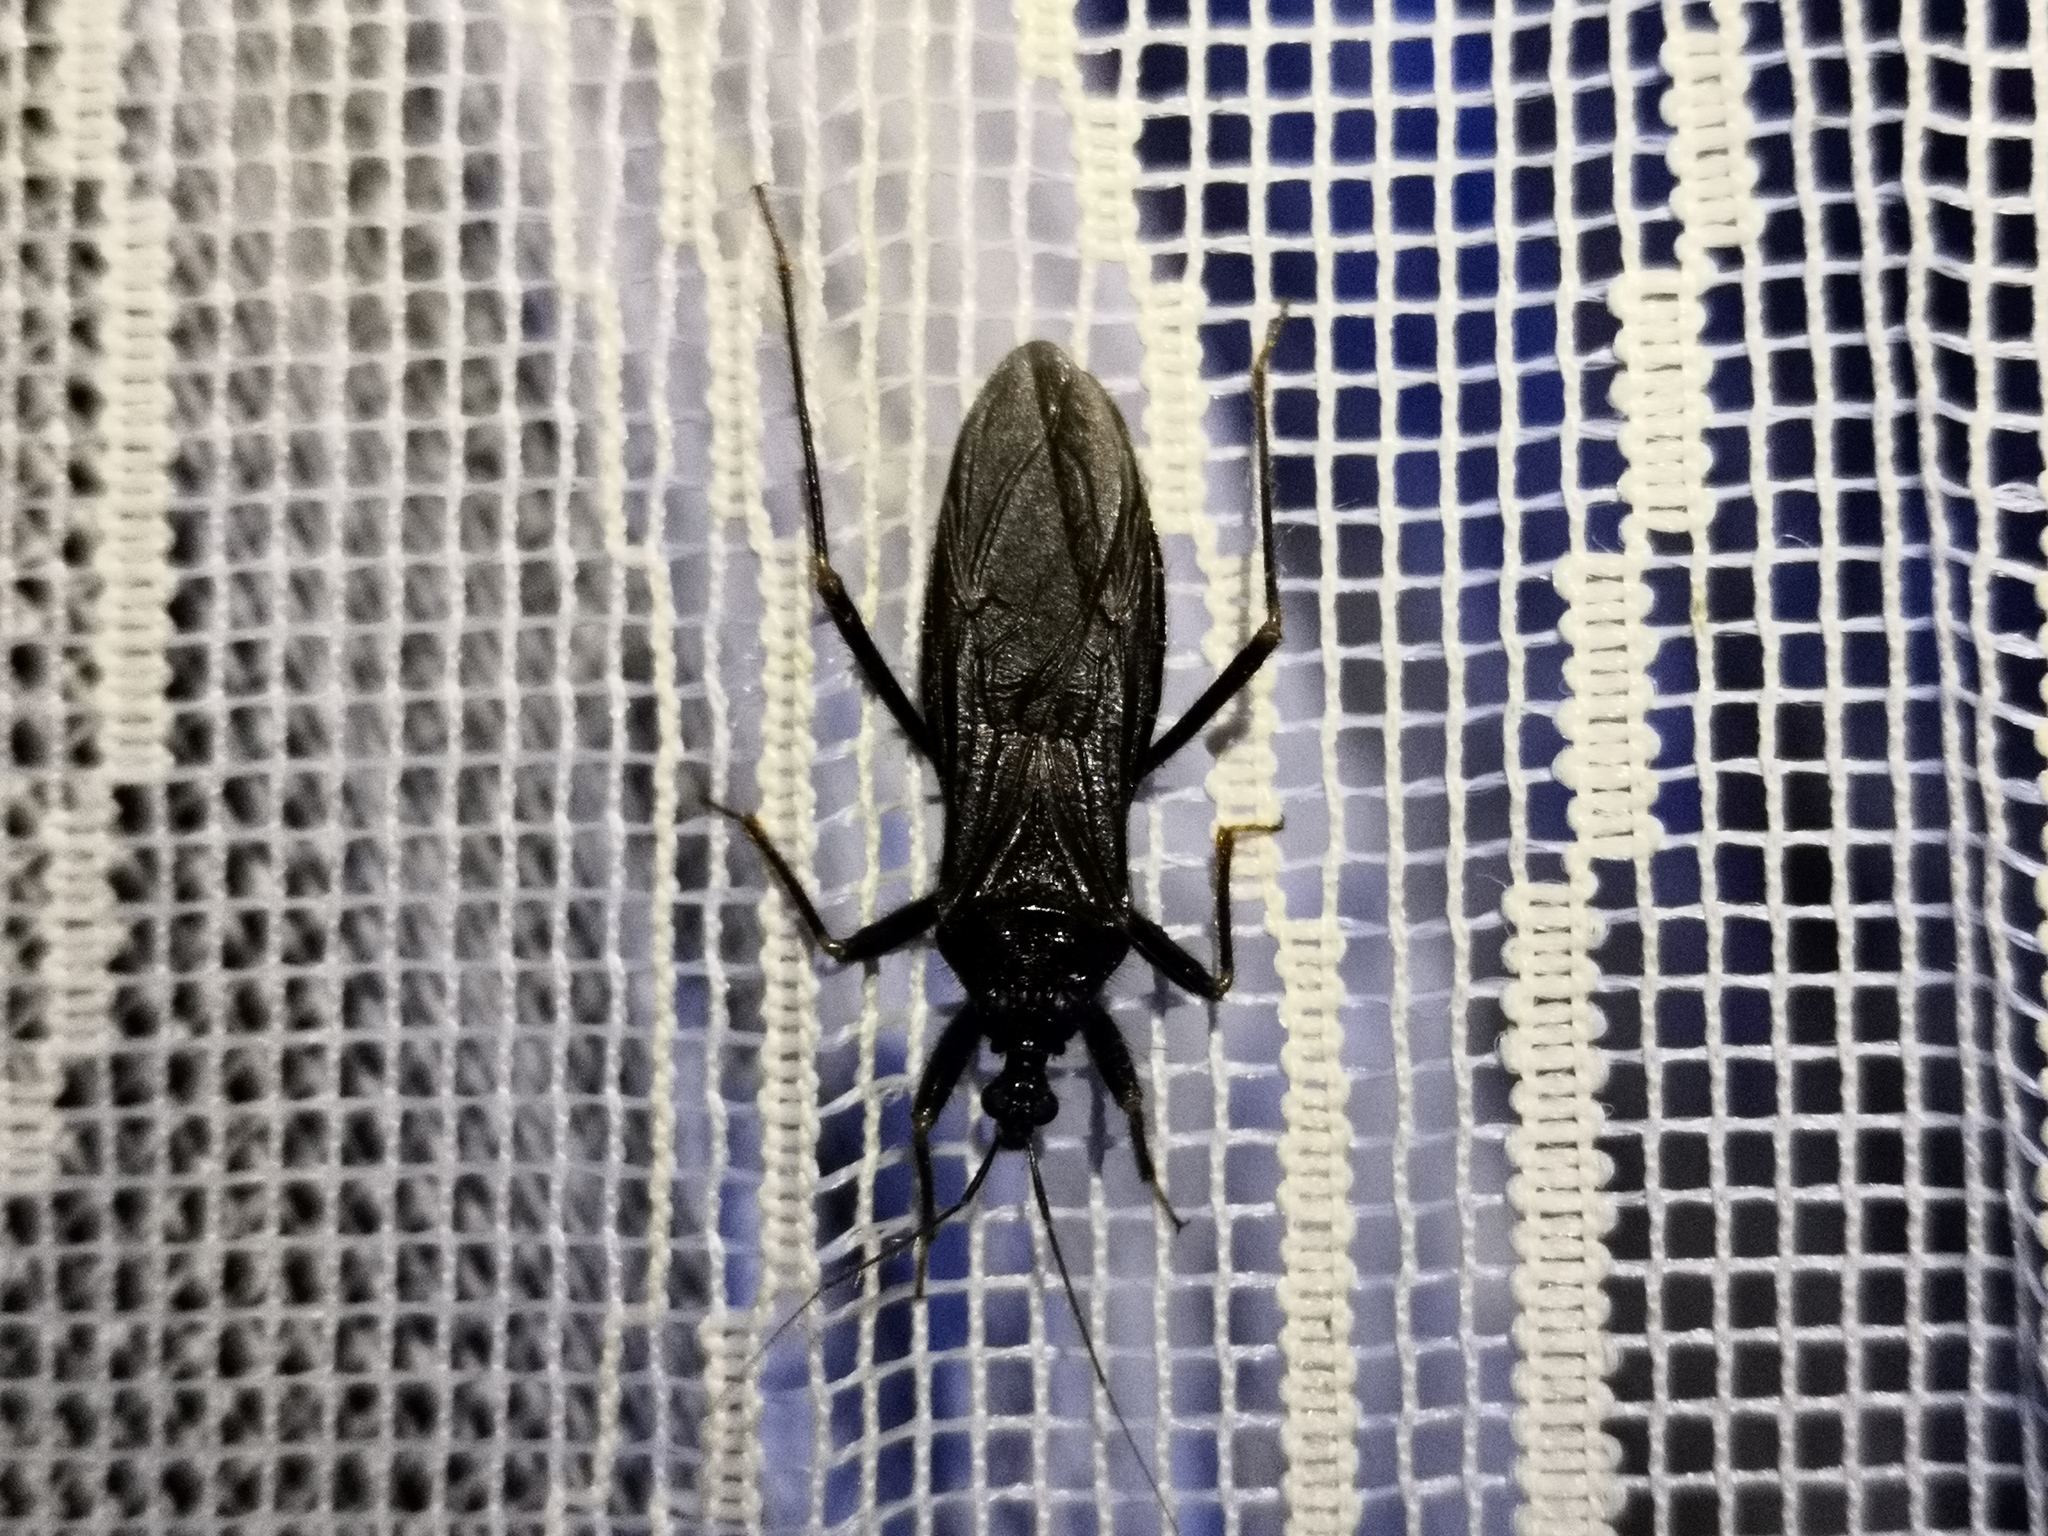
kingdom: Animalia
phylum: Arthropoda
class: Insecta
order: Hemiptera
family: Reduviidae
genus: Reduvius
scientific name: Reduvius personatus
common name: Masked hunter
